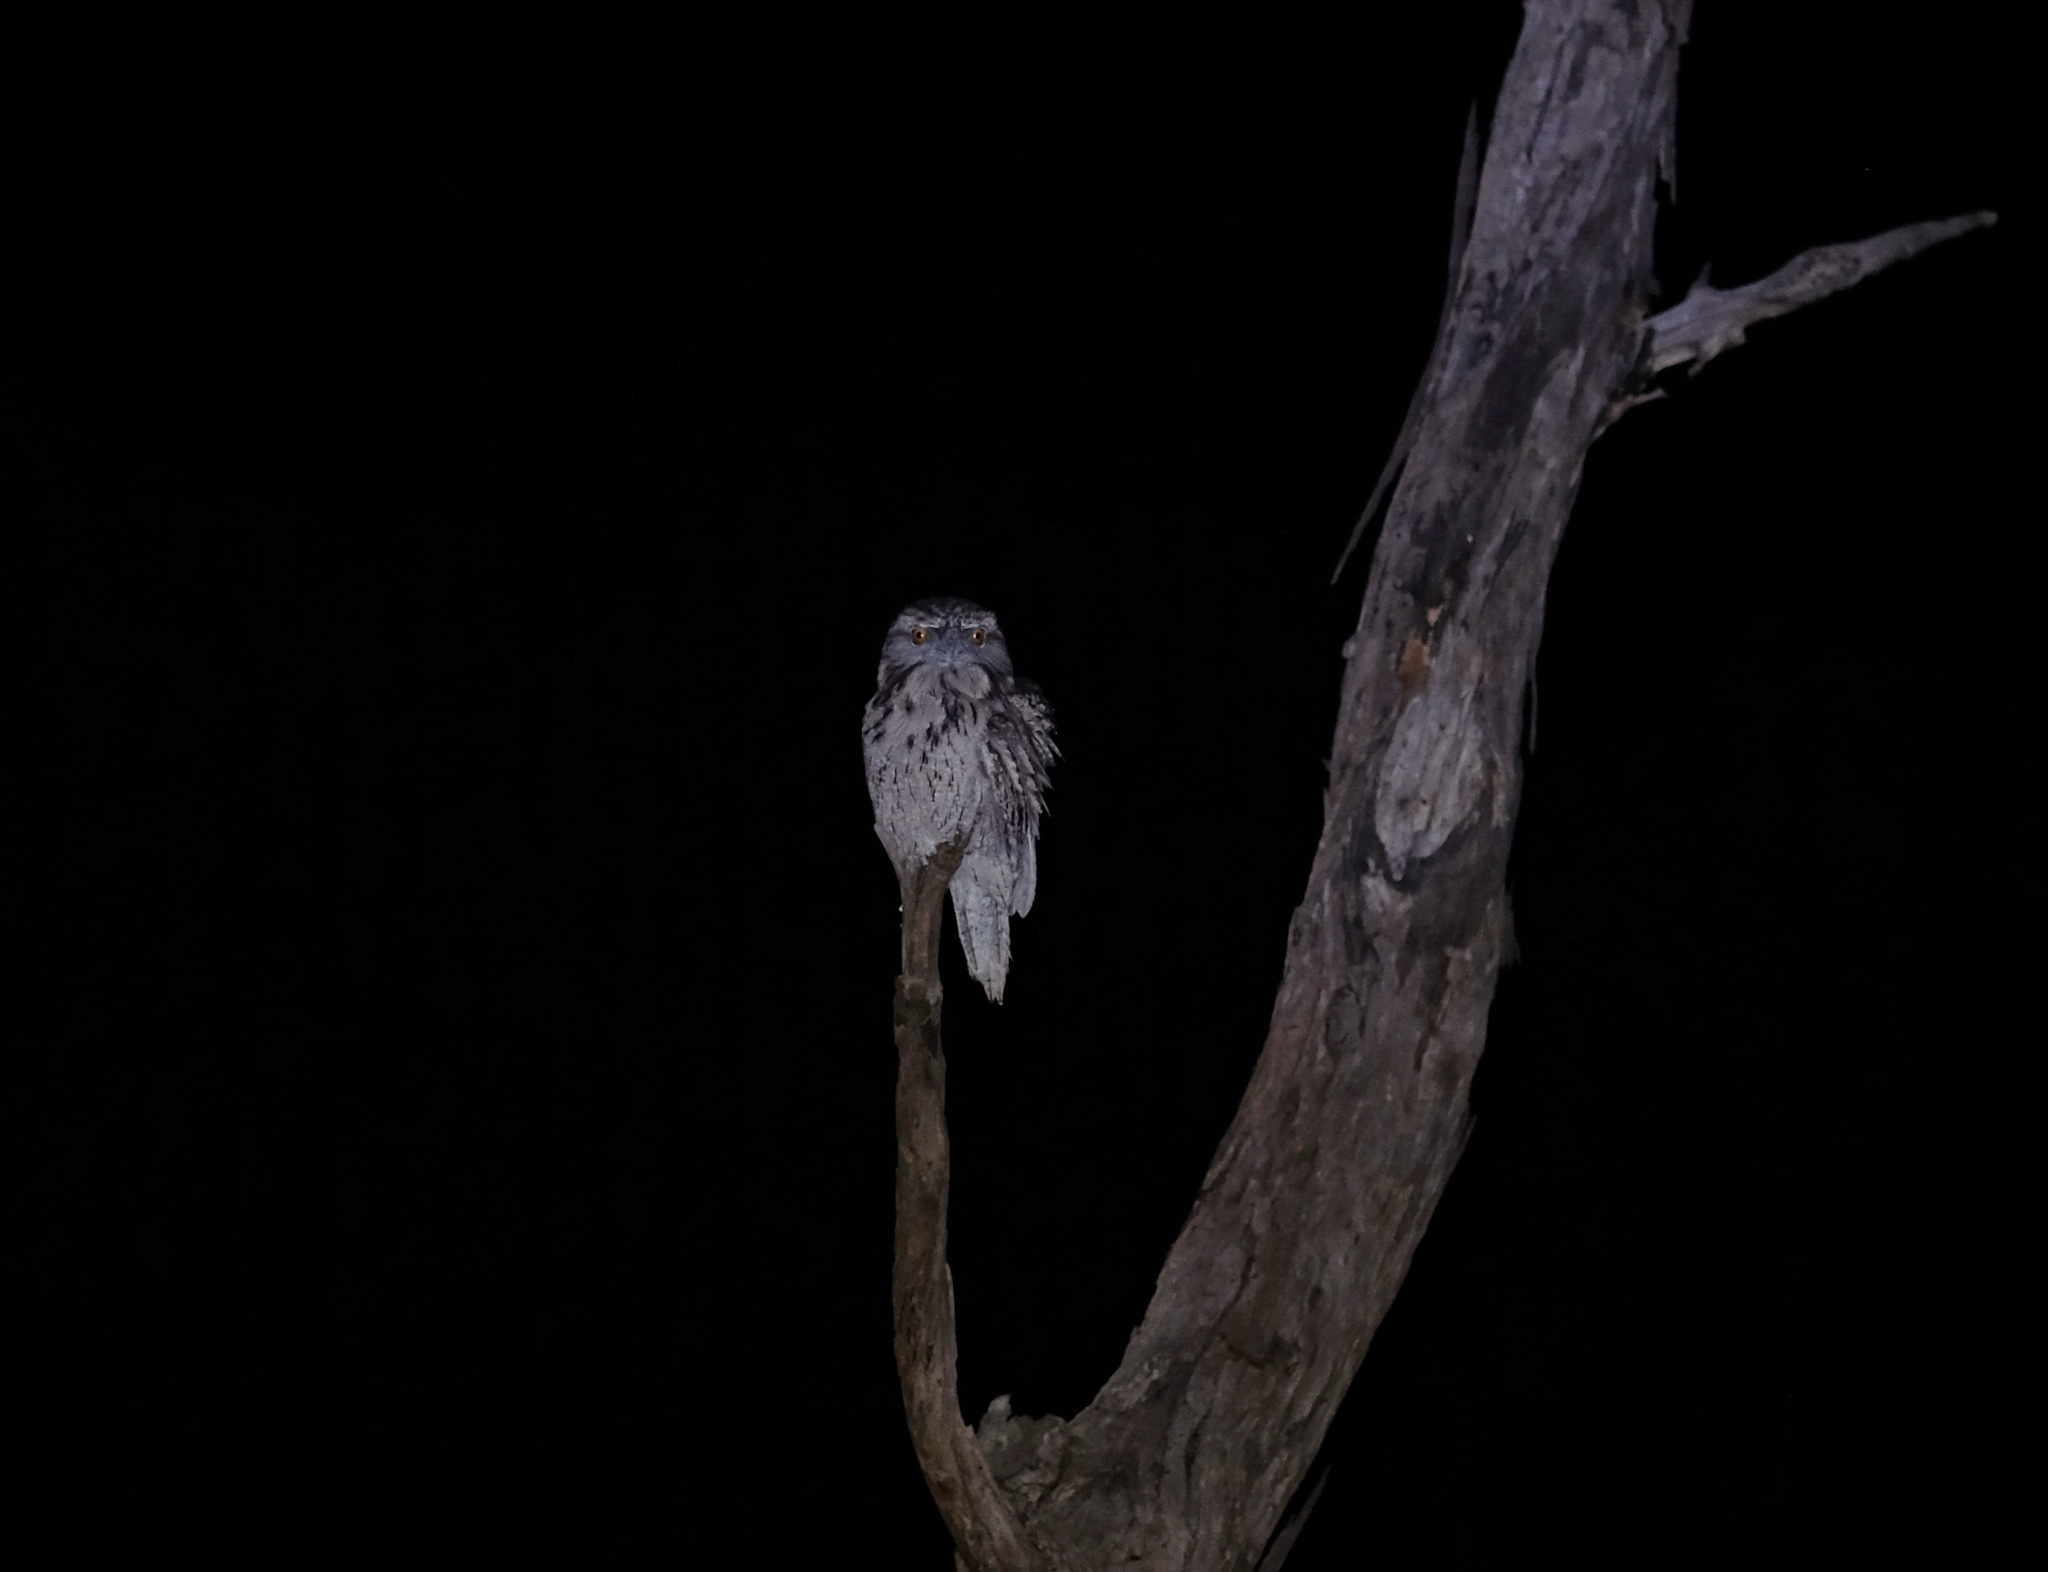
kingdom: Animalia
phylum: Chordata
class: Aves
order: Caprimulgiformes
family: Podargidae
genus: Podargus
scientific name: Podargus strigoides
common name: Tawny frogmouth
